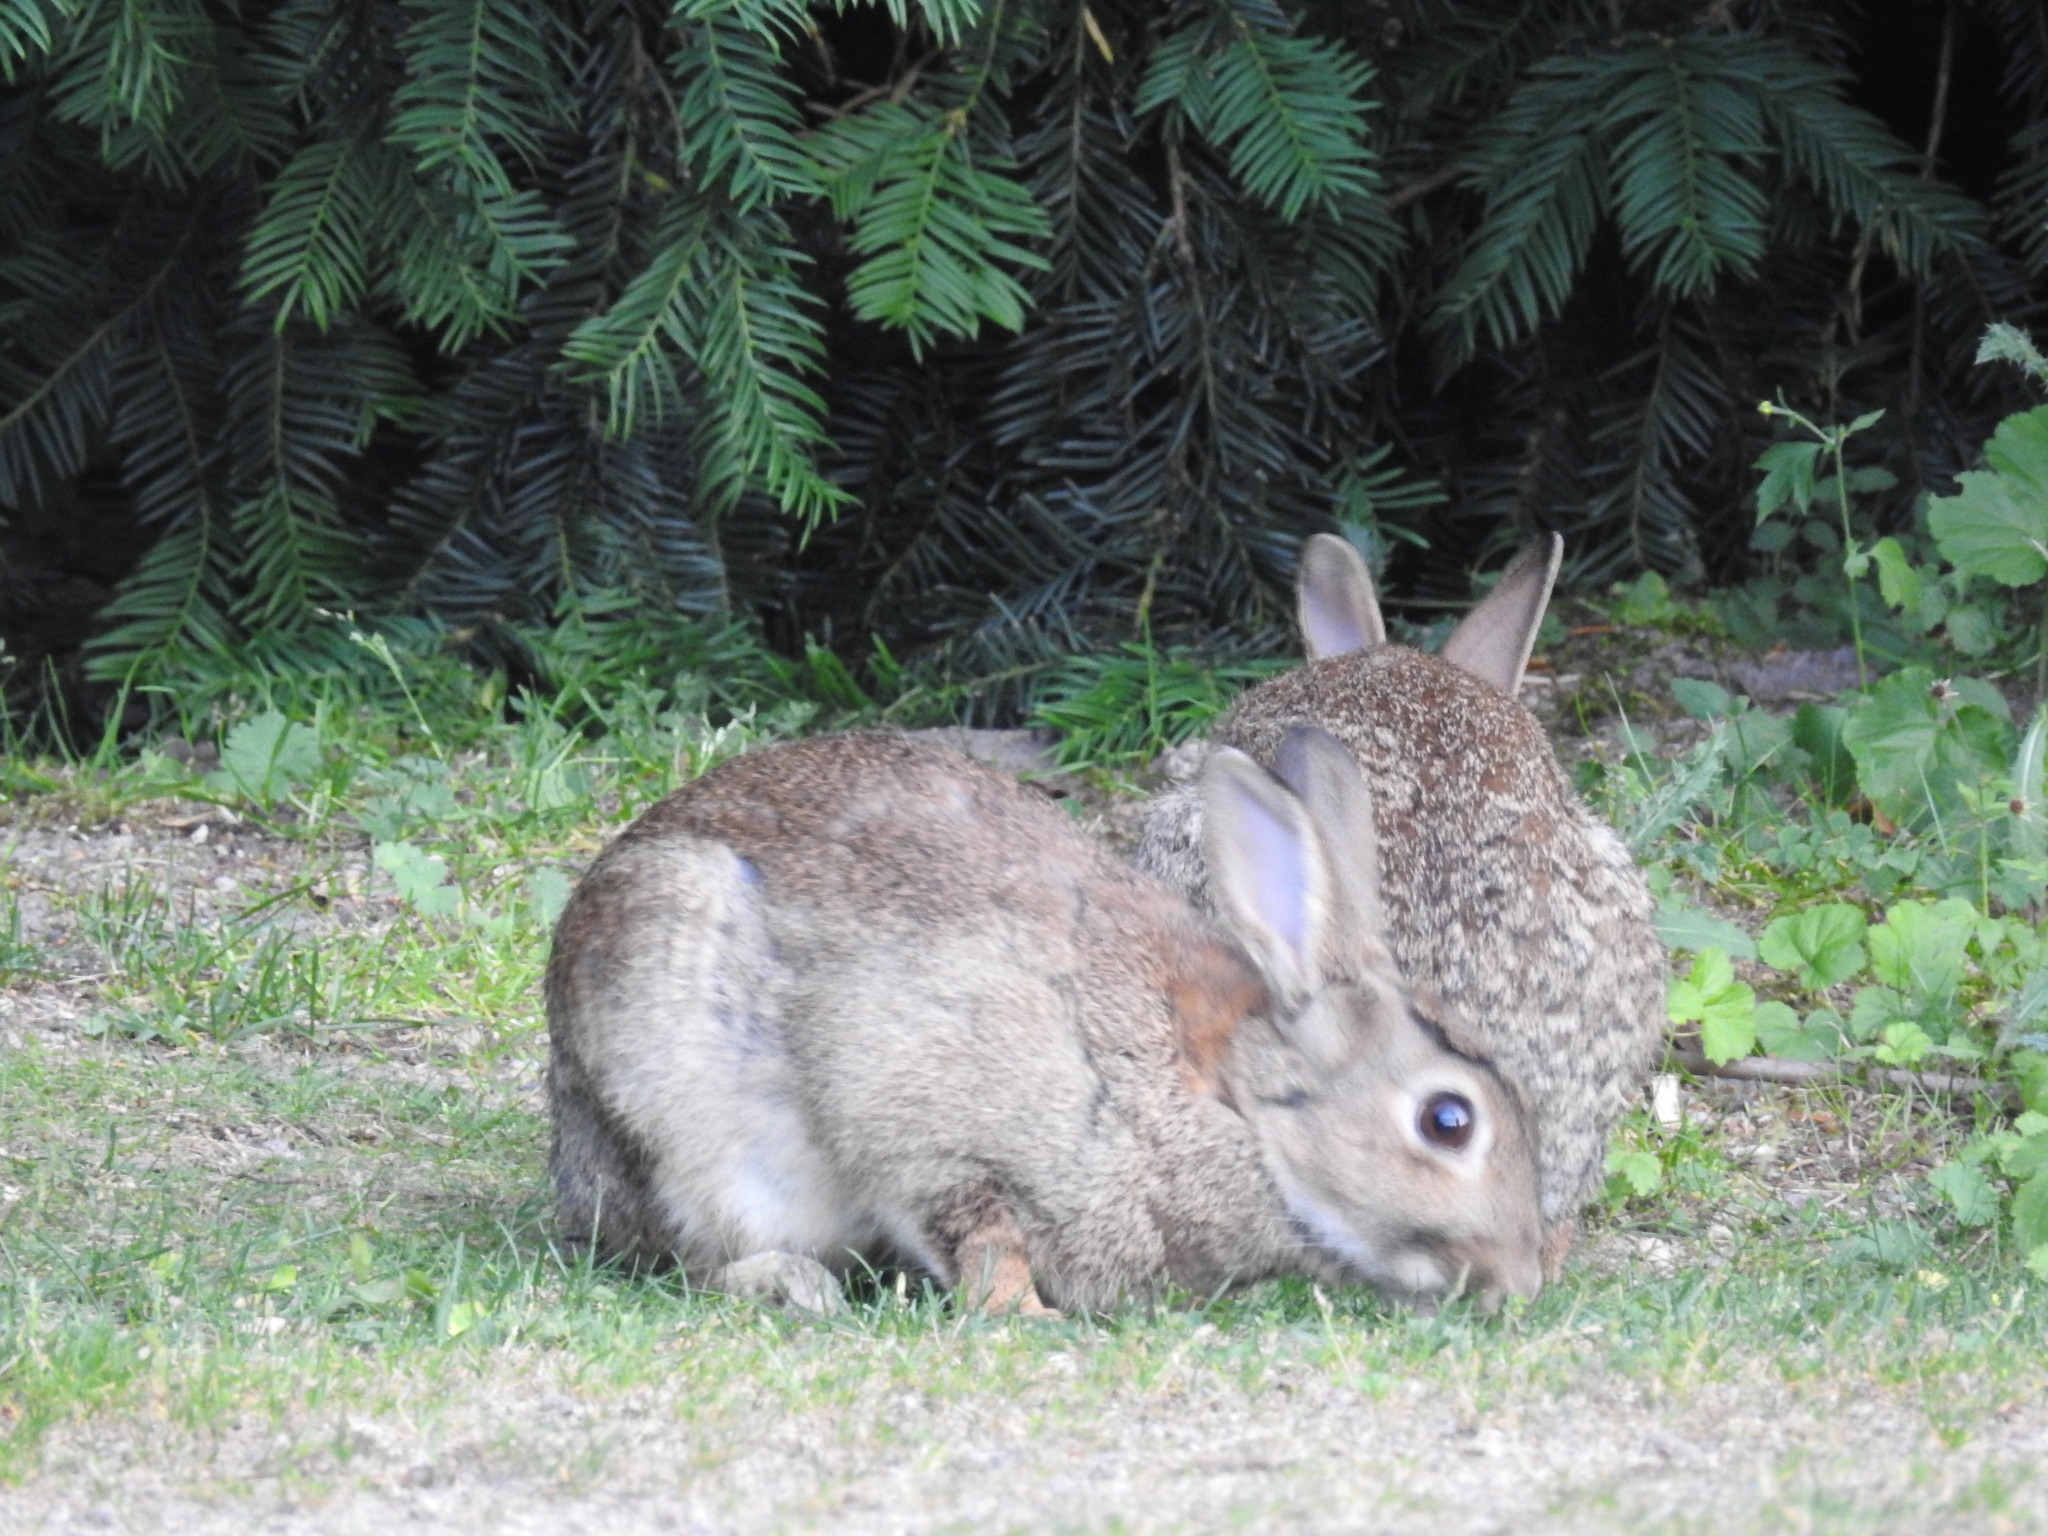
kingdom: Animalia
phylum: Chordata
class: Mammalia
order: Lagomorpha
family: Leporidae
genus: Oryctolagus
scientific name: Oryctolagus cuniculus
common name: European rabbit
